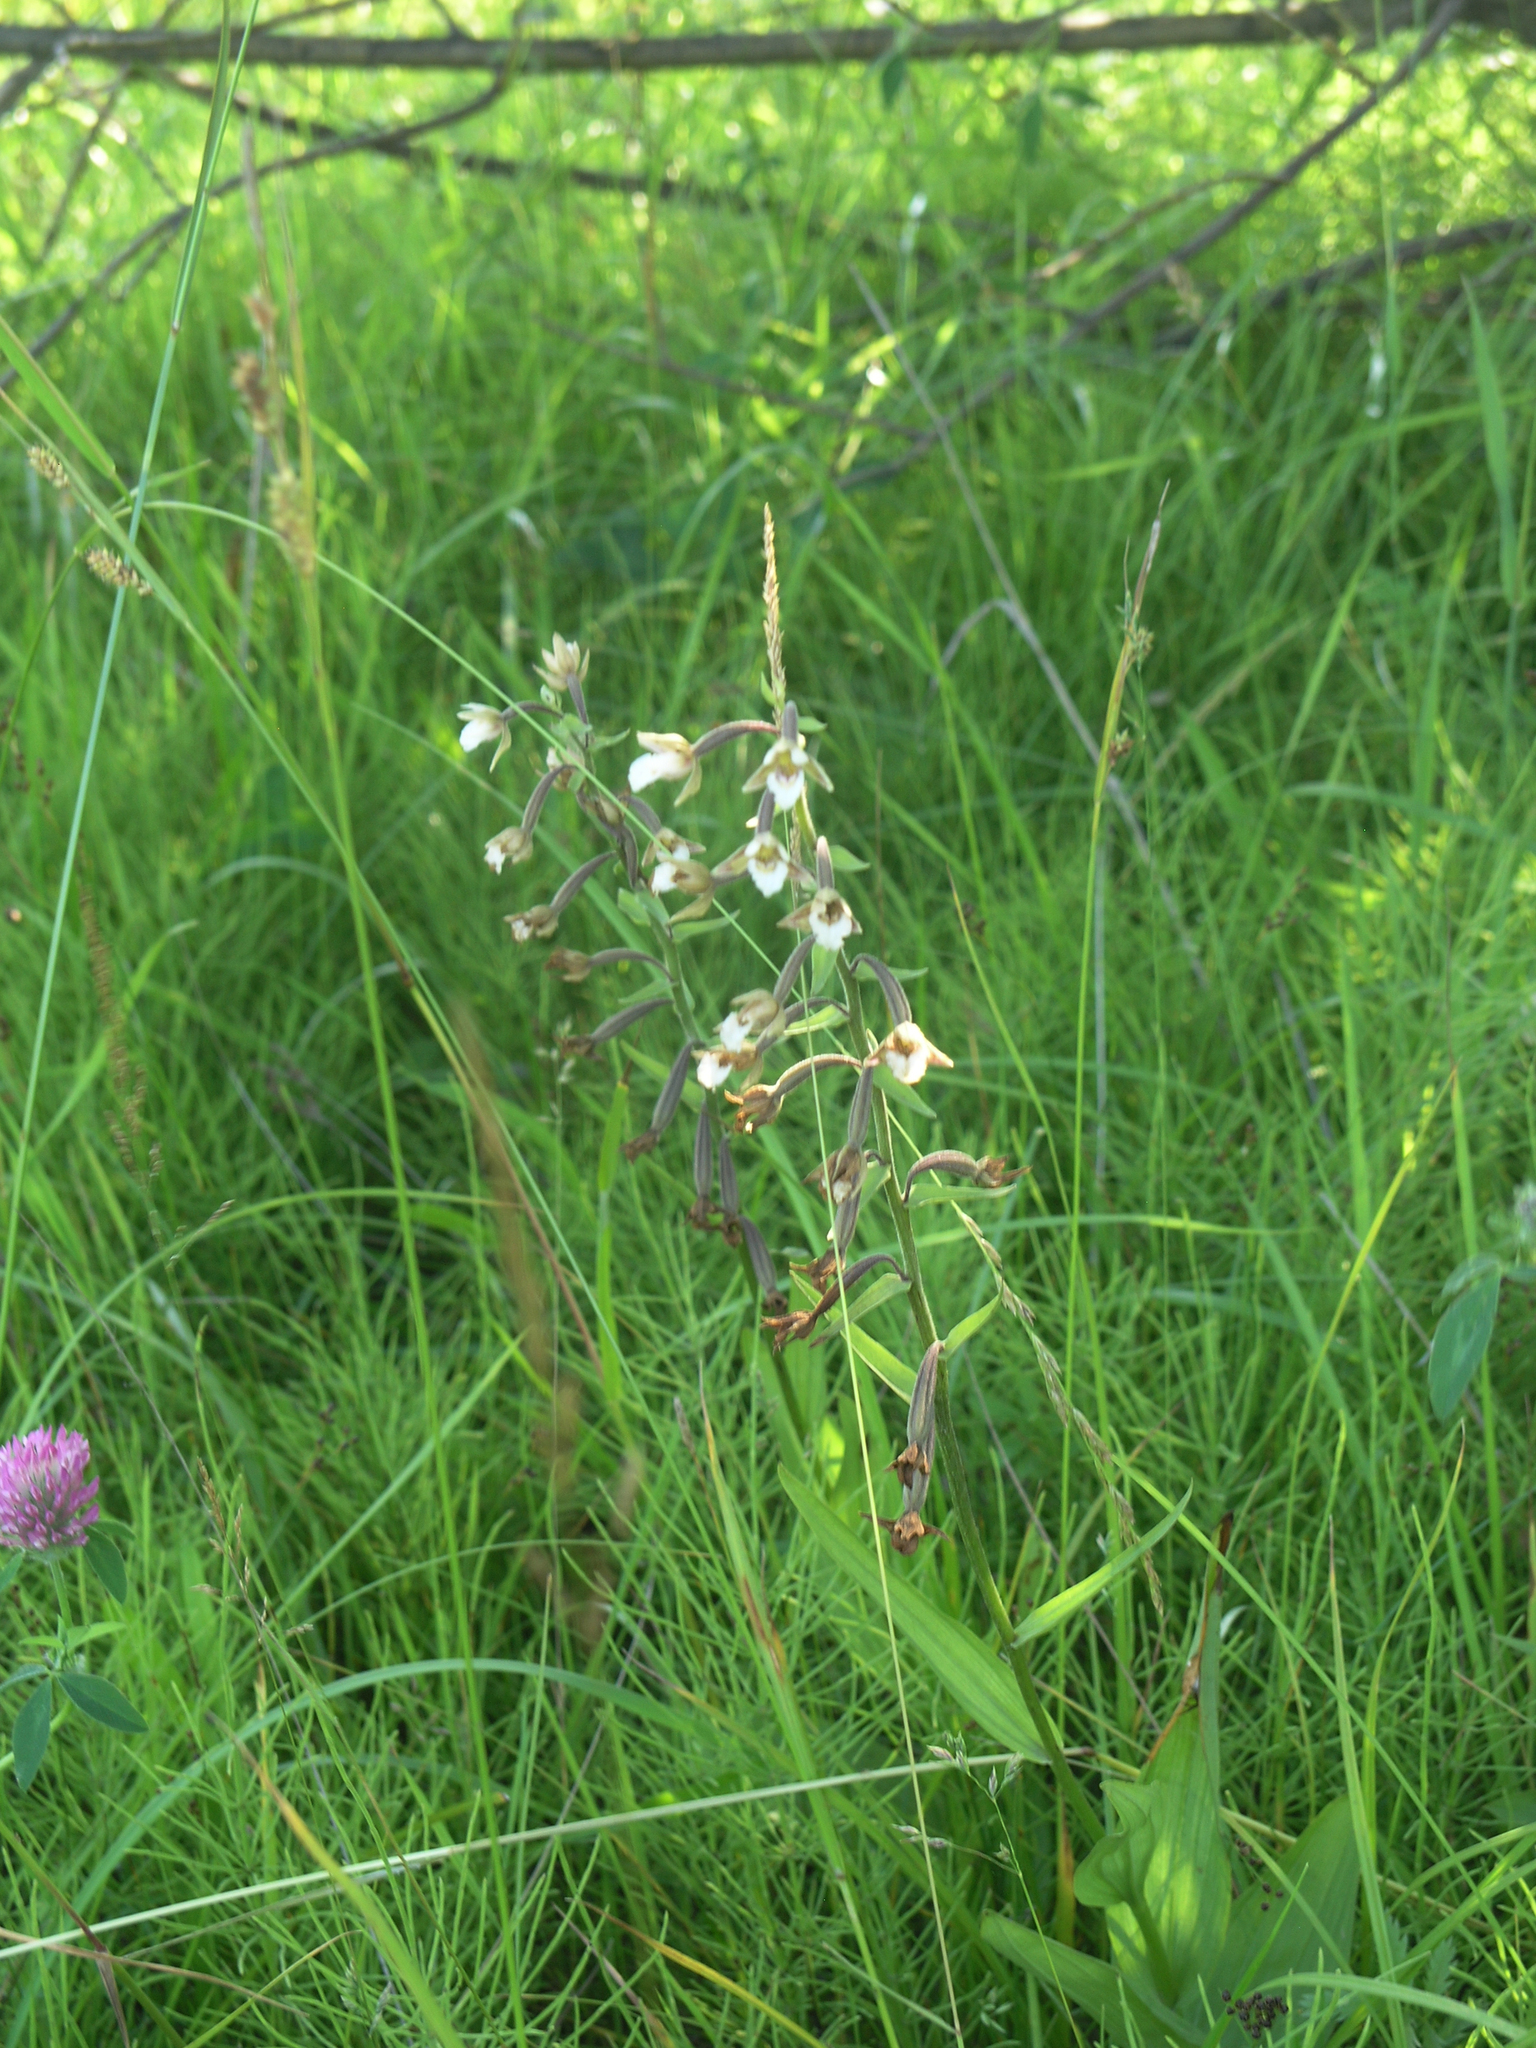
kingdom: Plantae
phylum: Tracheophyta
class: Liliopsida
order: Asparagales
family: Orchidaceae
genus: Epipactis
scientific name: Epipactis palustris
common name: Marsh helleborine
